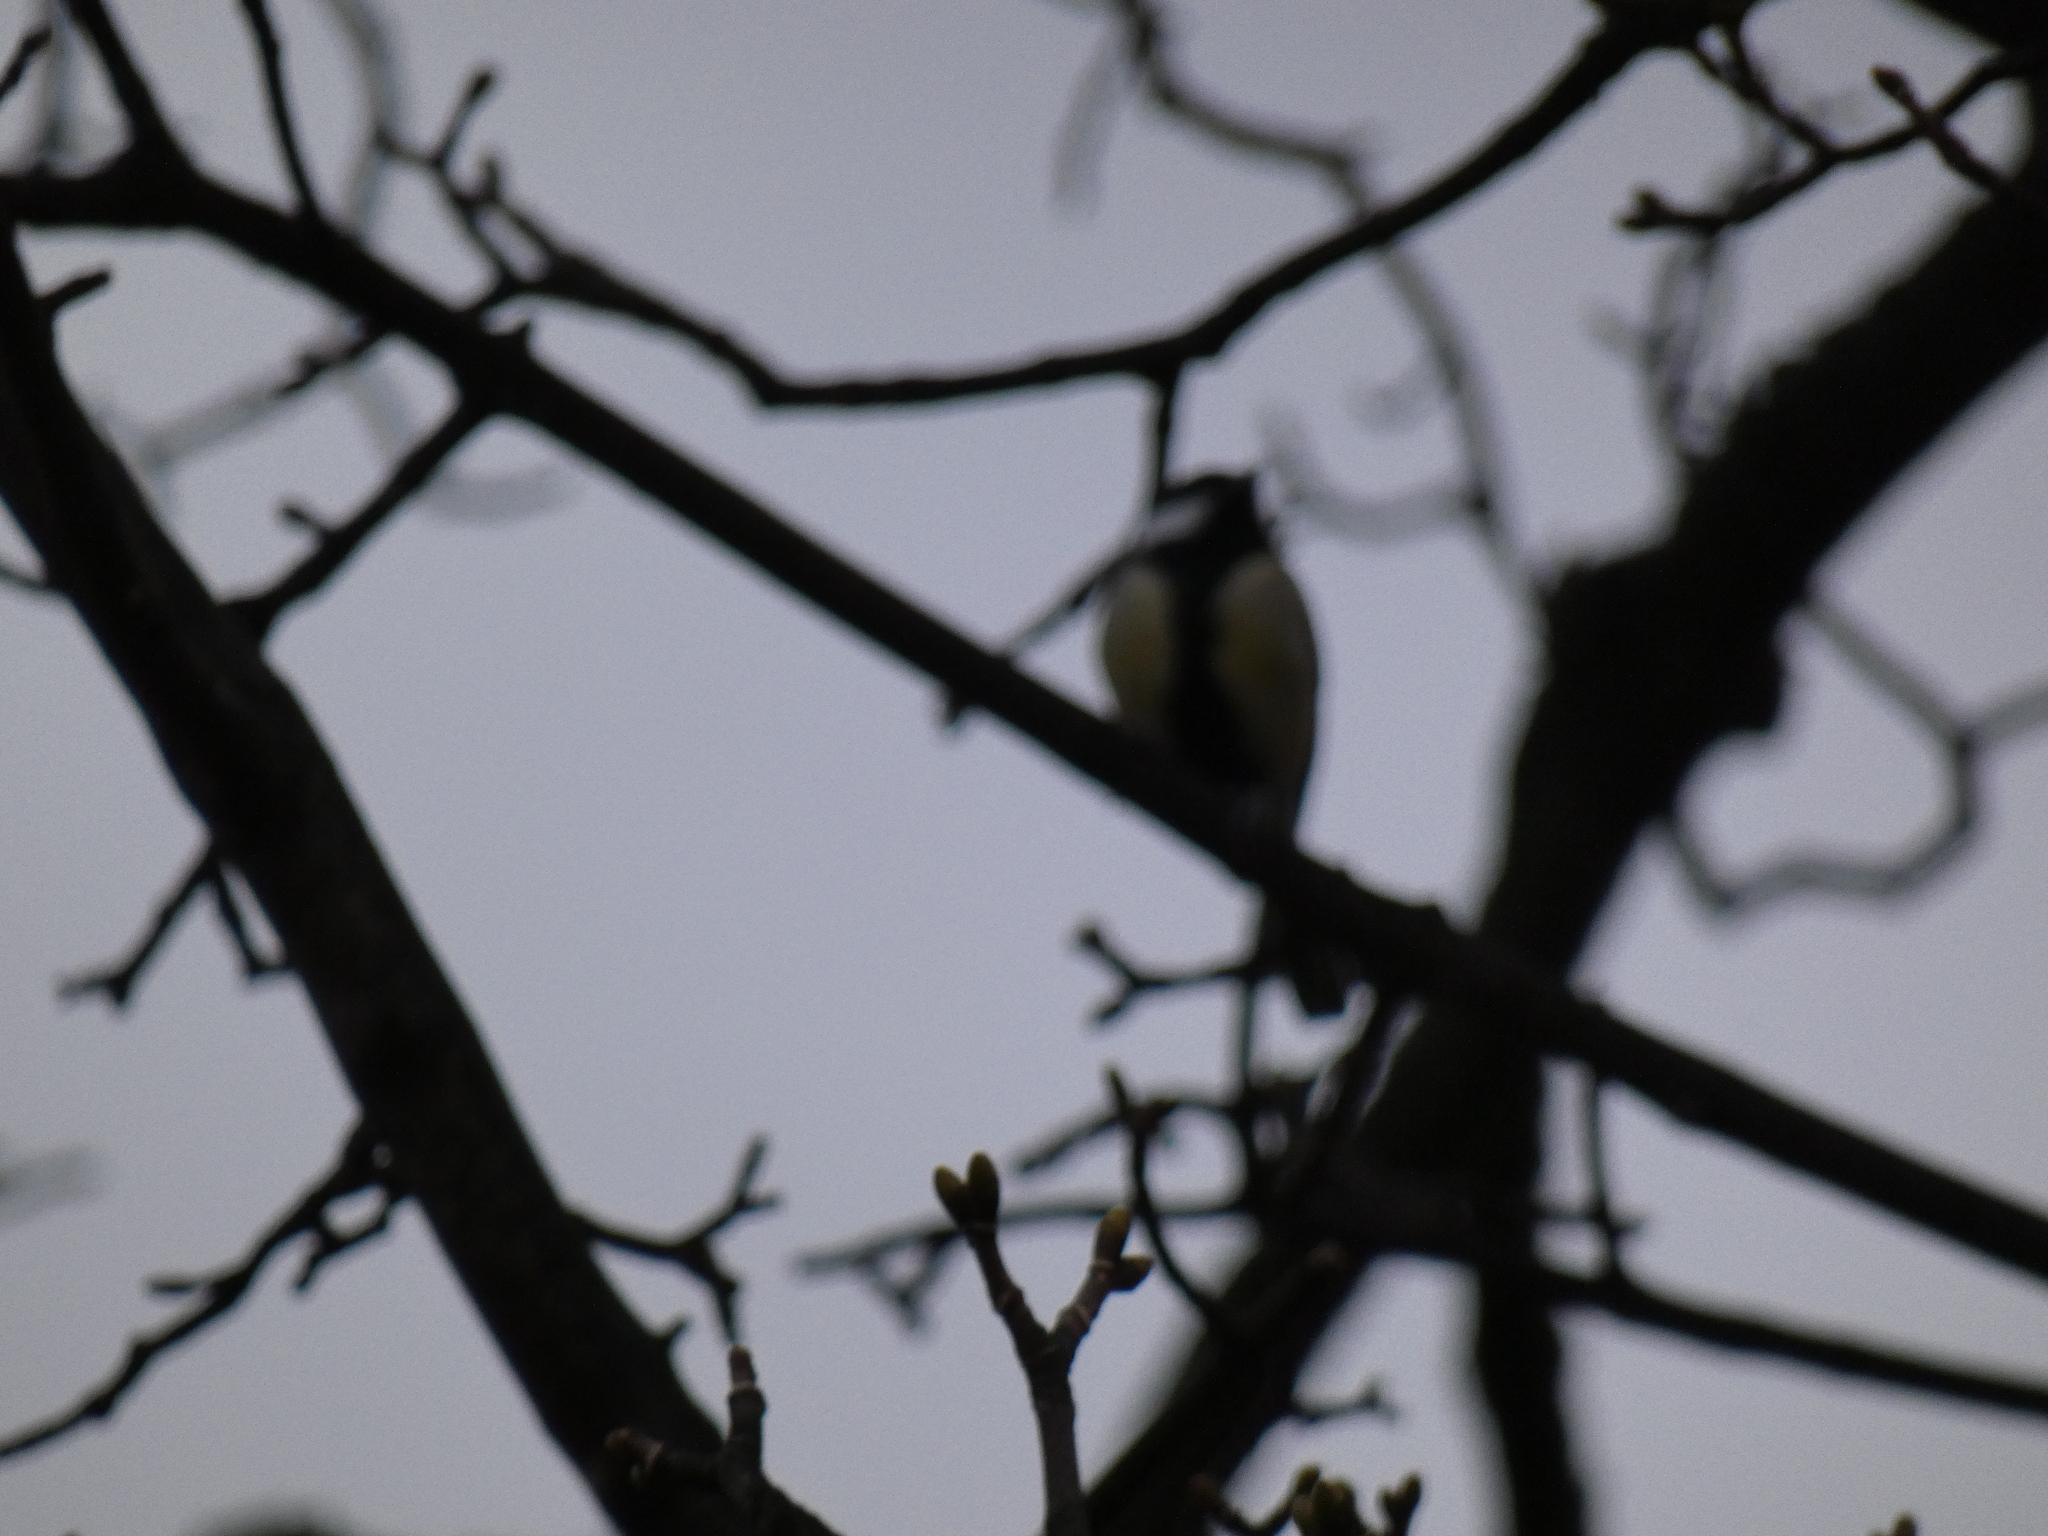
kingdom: Animalia
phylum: Chordata
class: Aves
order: Passeriformes
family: Paridae
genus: Parus
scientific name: Parus major
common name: Great tit
